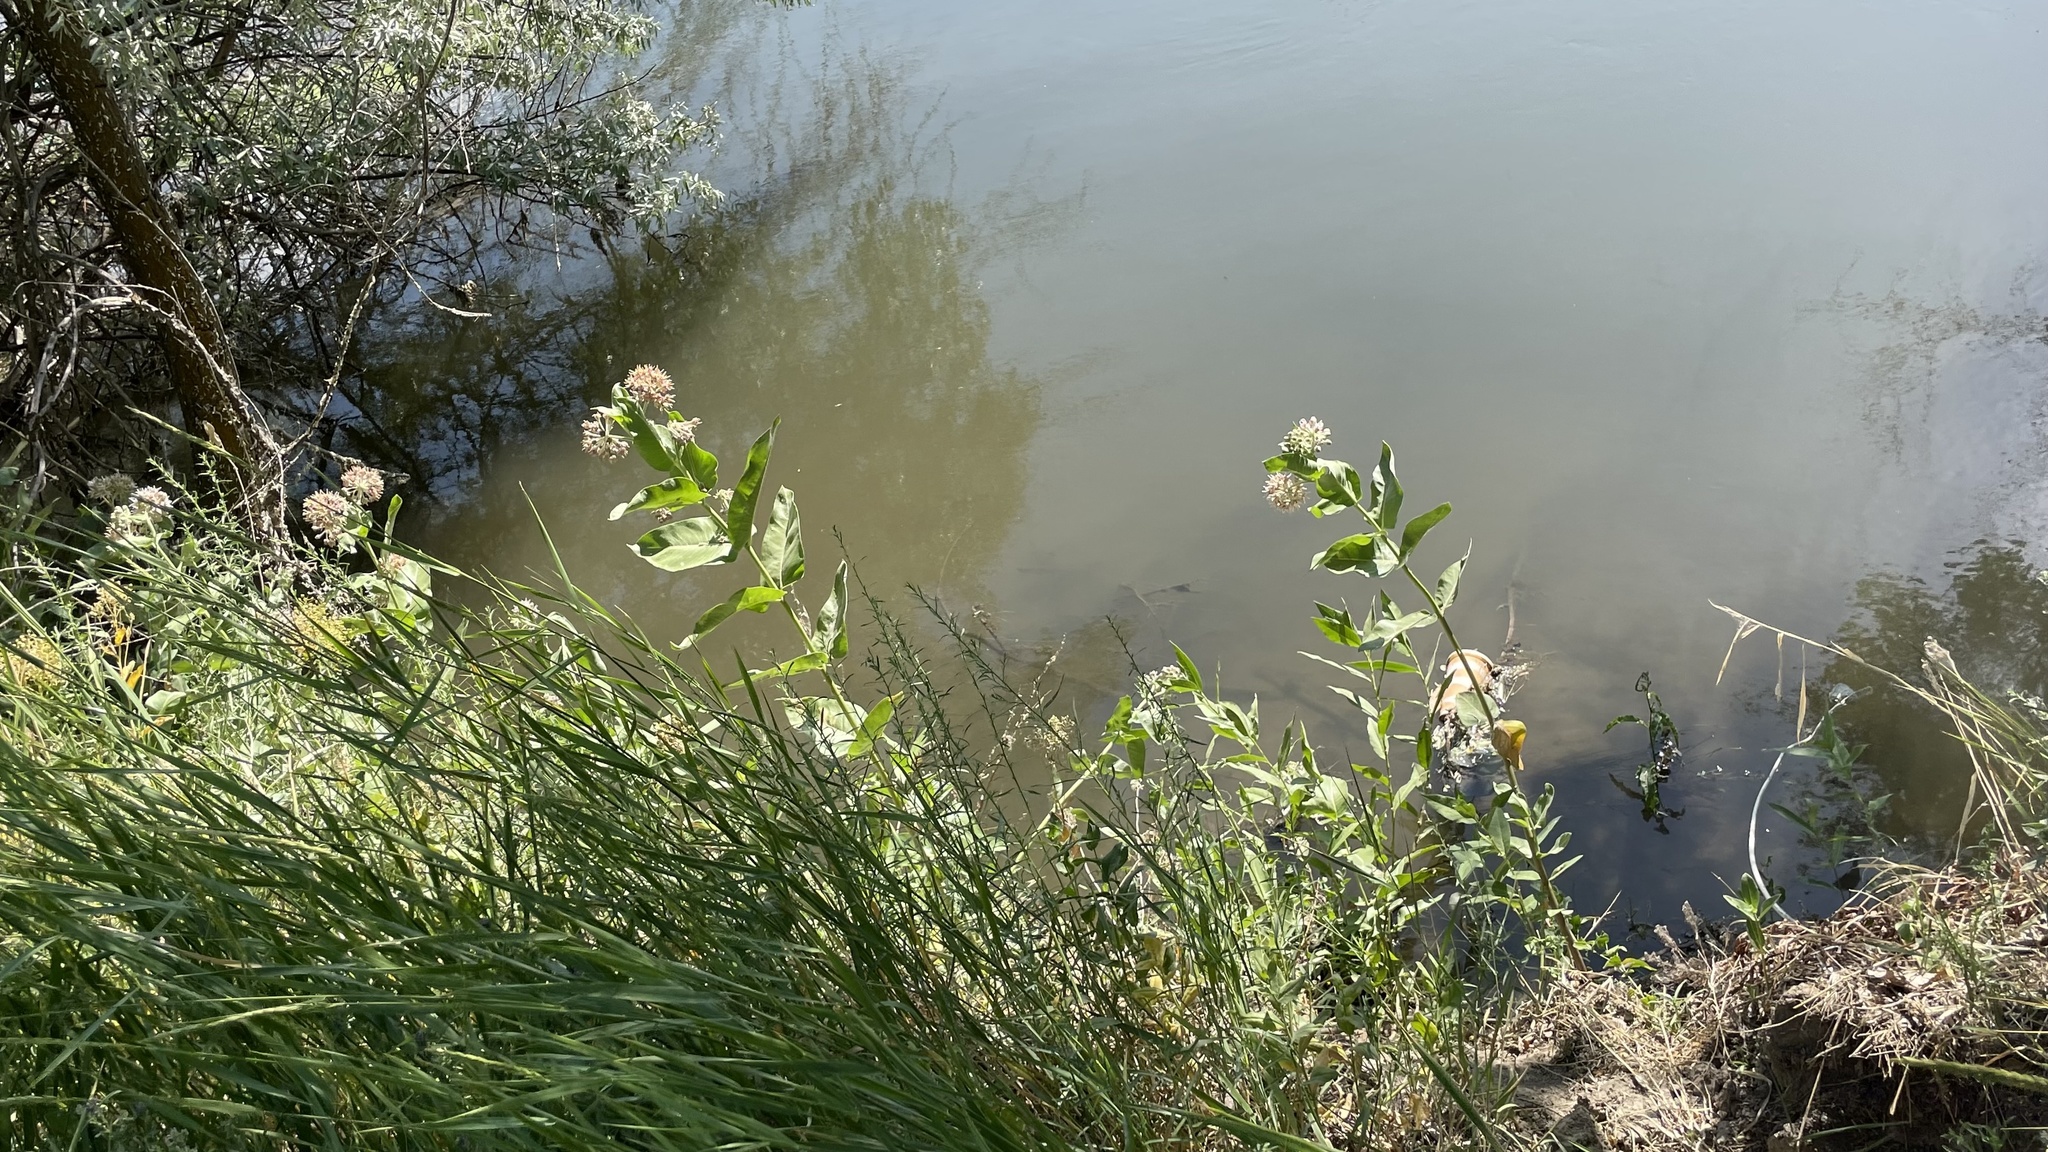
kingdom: Plantae
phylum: Tracheophyta
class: Magnoliopsida
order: Gentianales
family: Apocynaceae
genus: Asclepias
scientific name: Asclepias speciosa
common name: Showy milkweed
